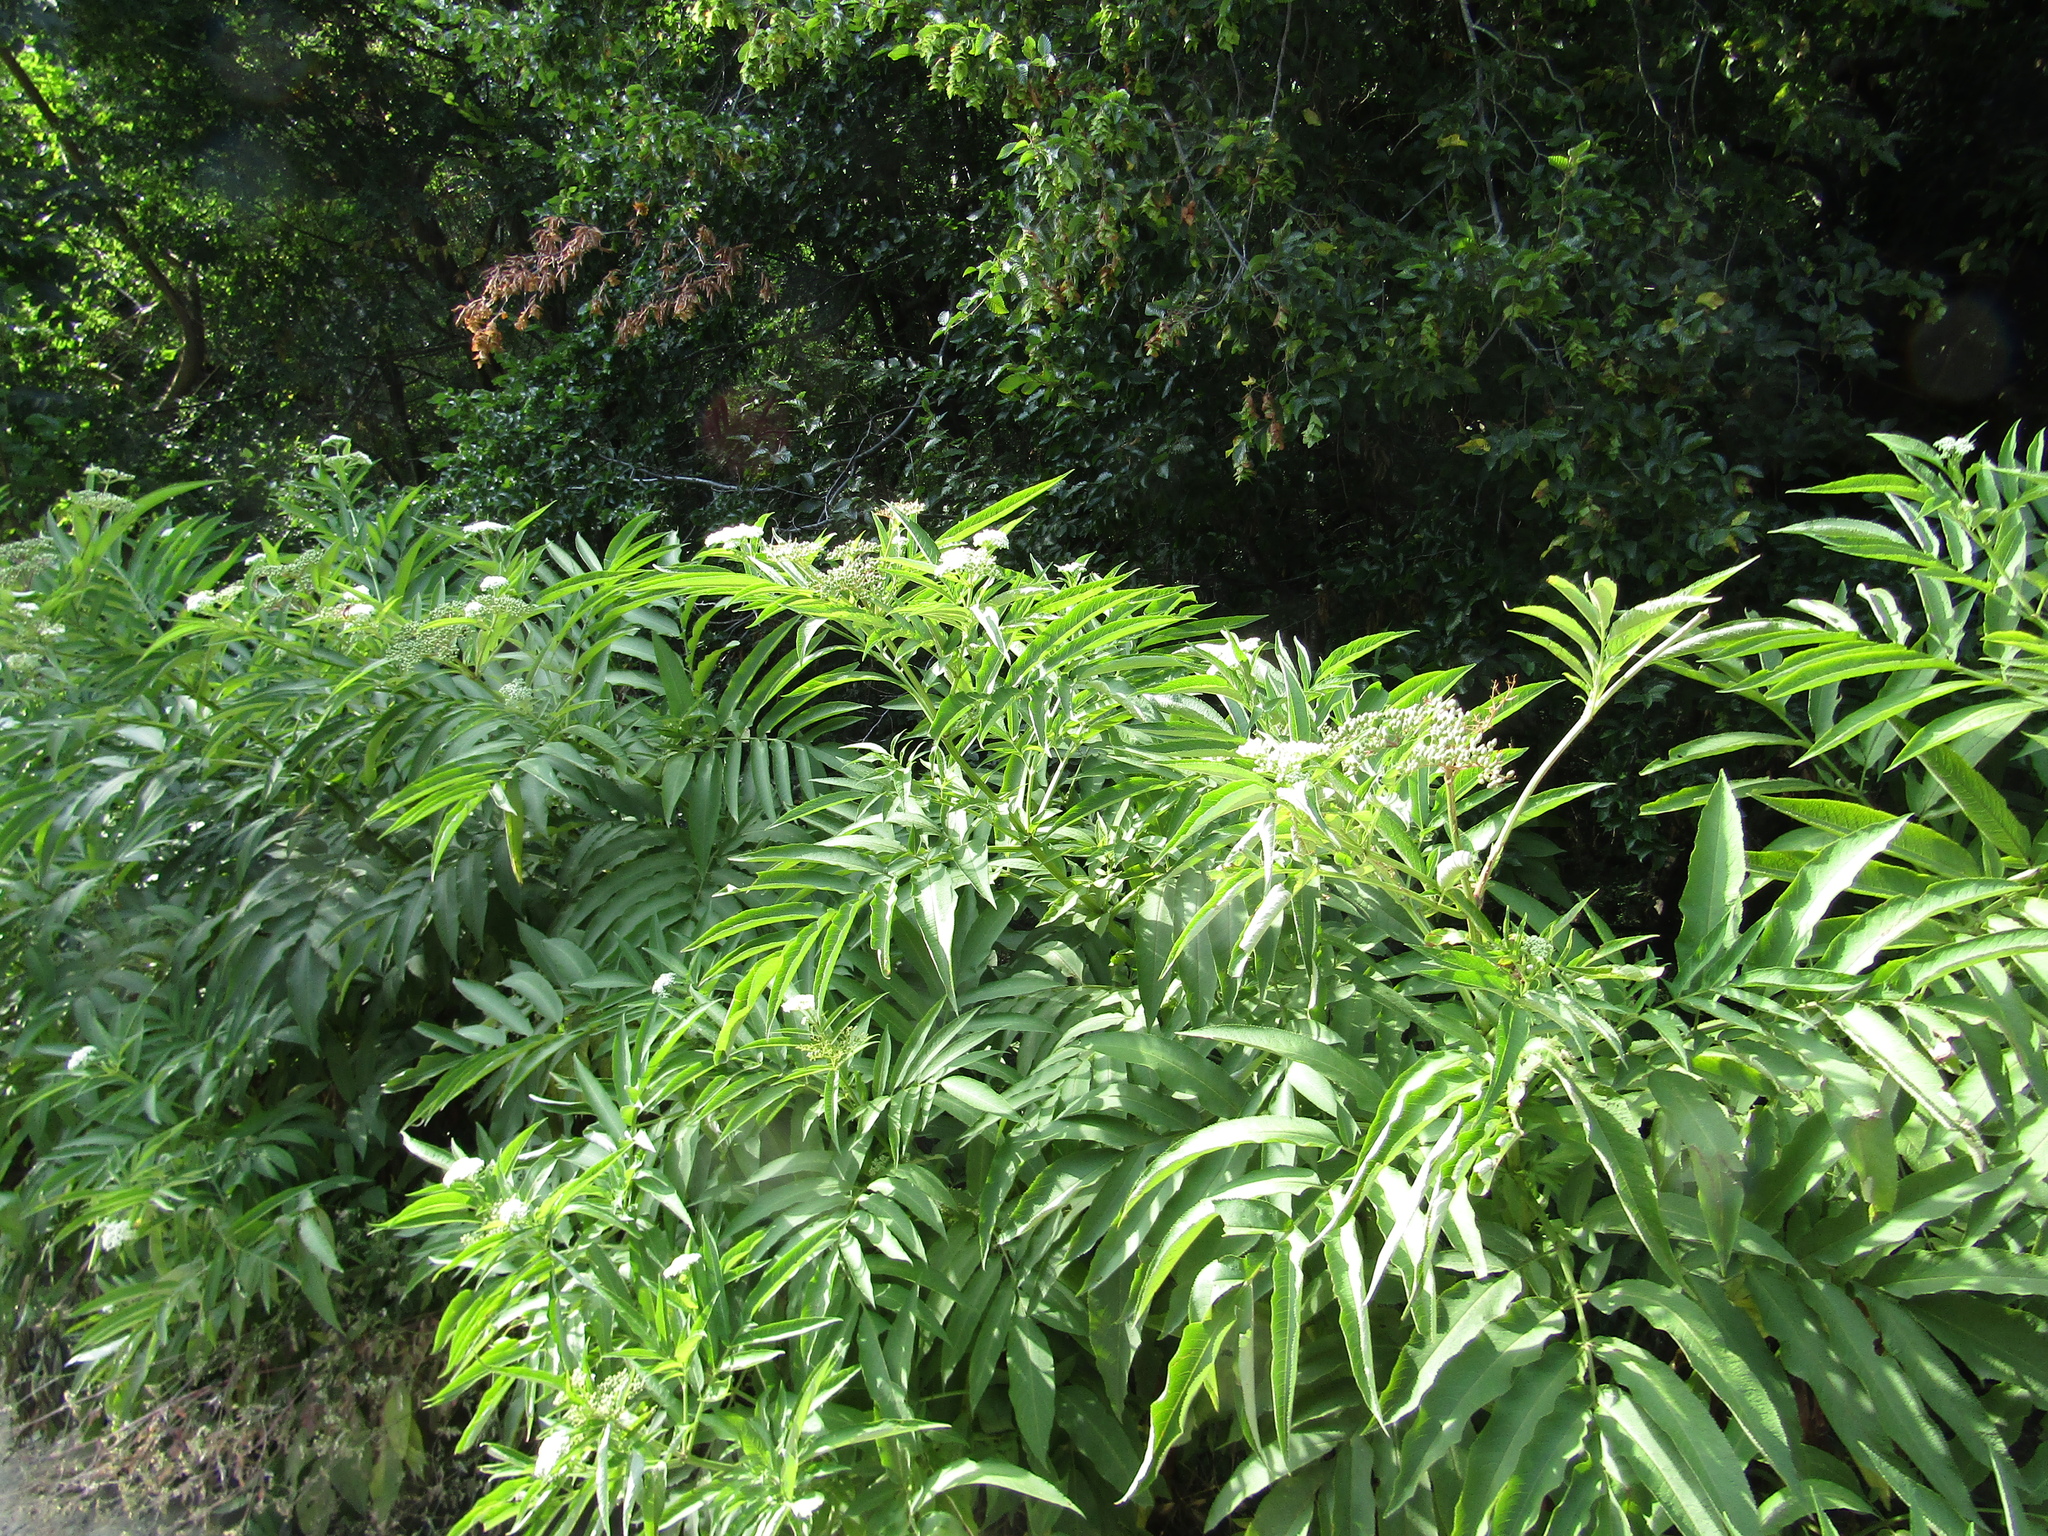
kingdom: Plantae
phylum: Tracheophyta
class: Magnoliopsida
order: Dipsacales
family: Viburnaceae
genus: Sambucus
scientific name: Sambucus ebulus
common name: Dwarf elder
